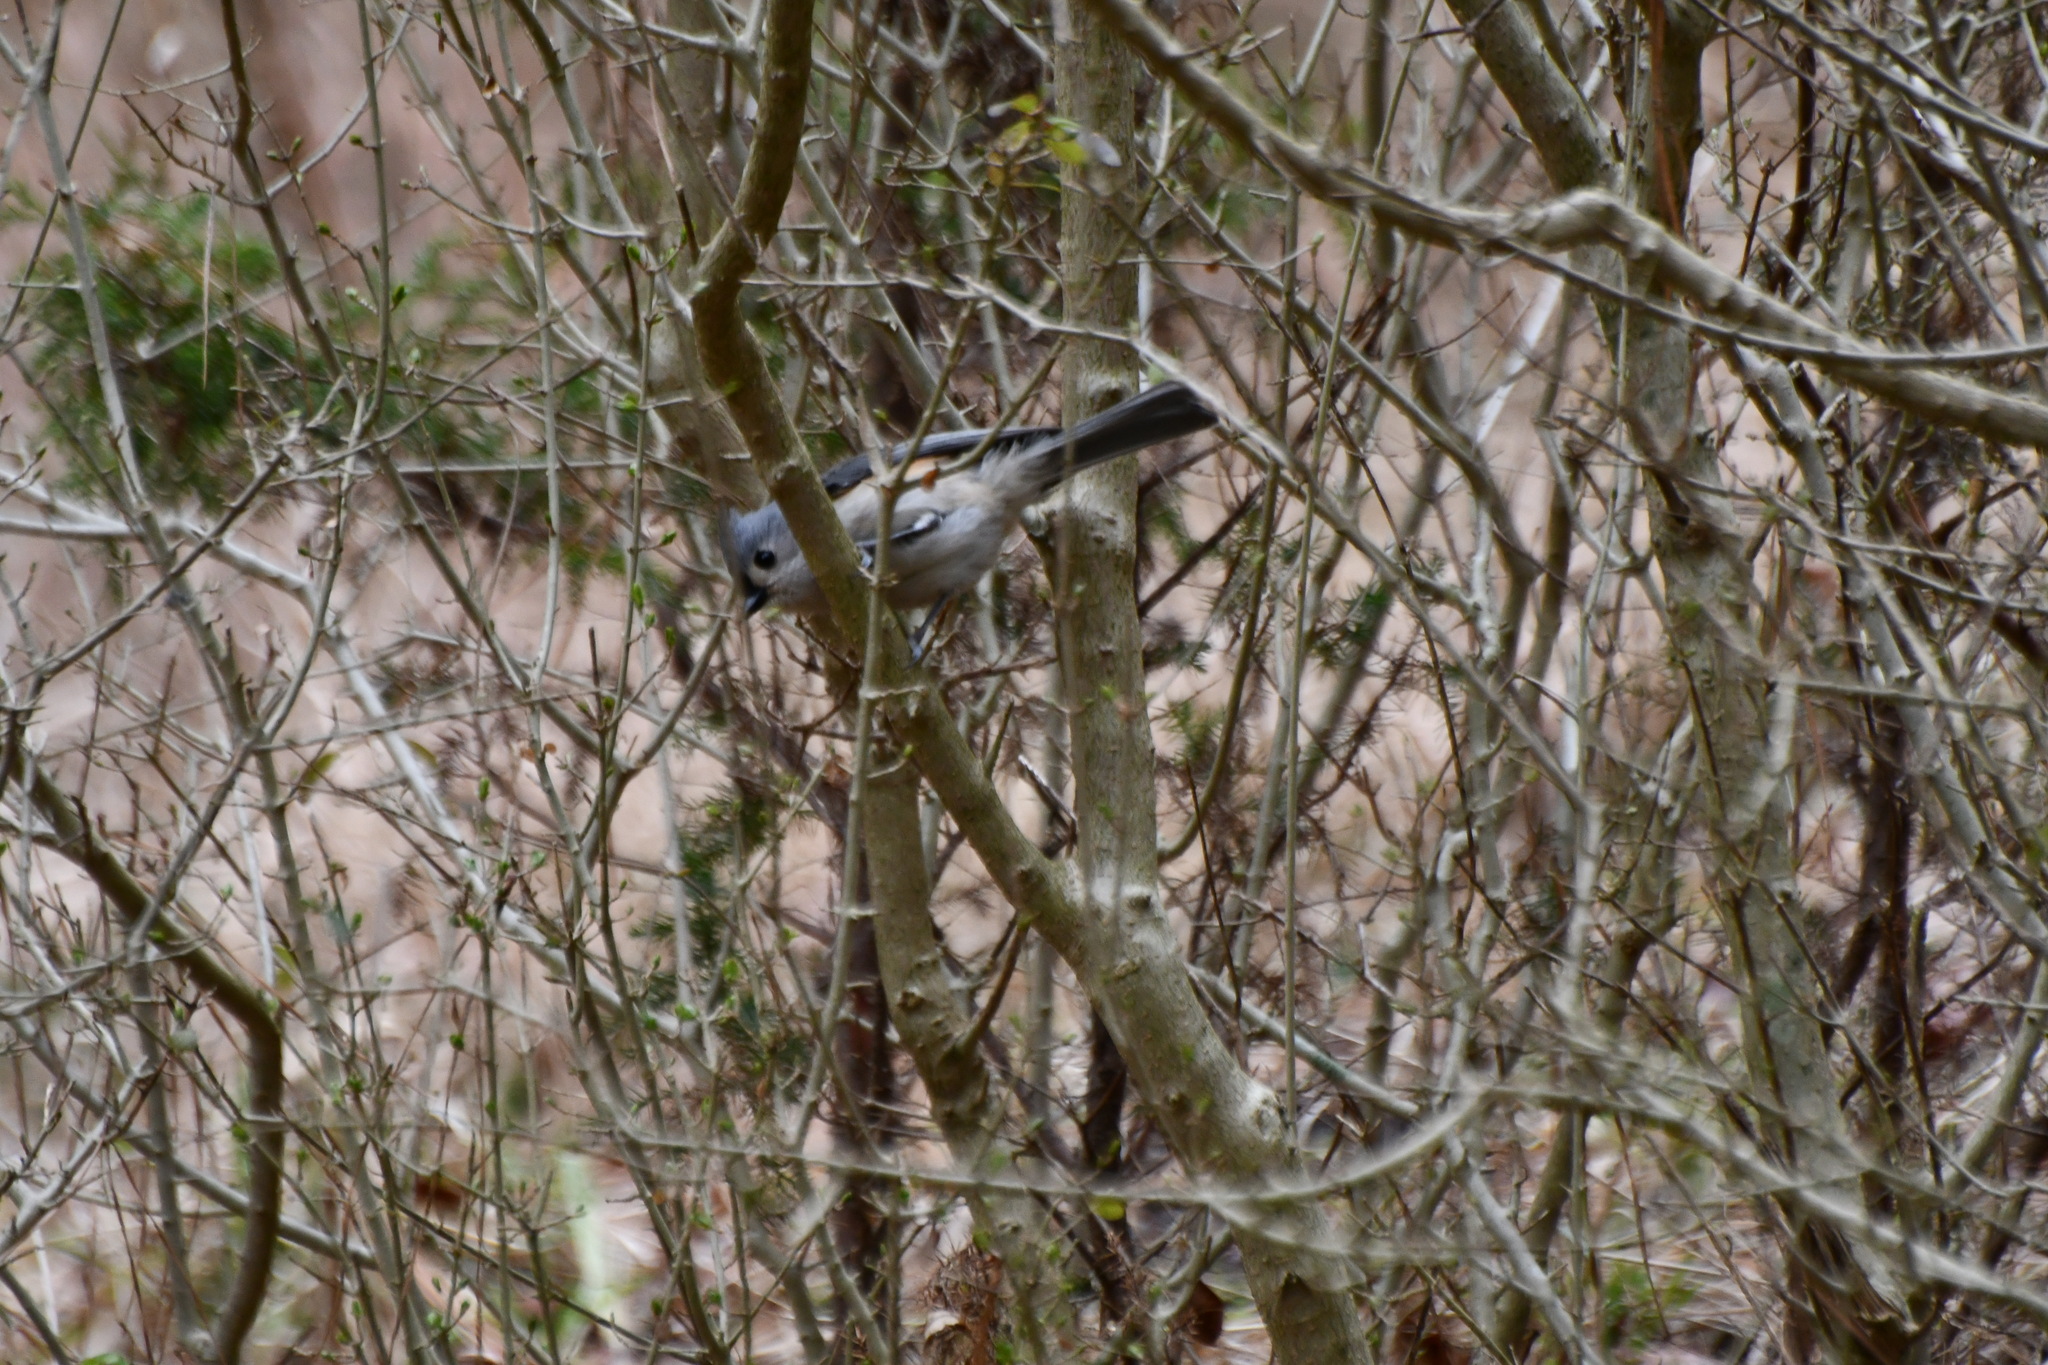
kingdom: Animalia
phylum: Chordata
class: Aves
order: Passeriformes
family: Paridae
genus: Baeolophus
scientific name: Baeolophus bicolor
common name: Tufted titmouse
